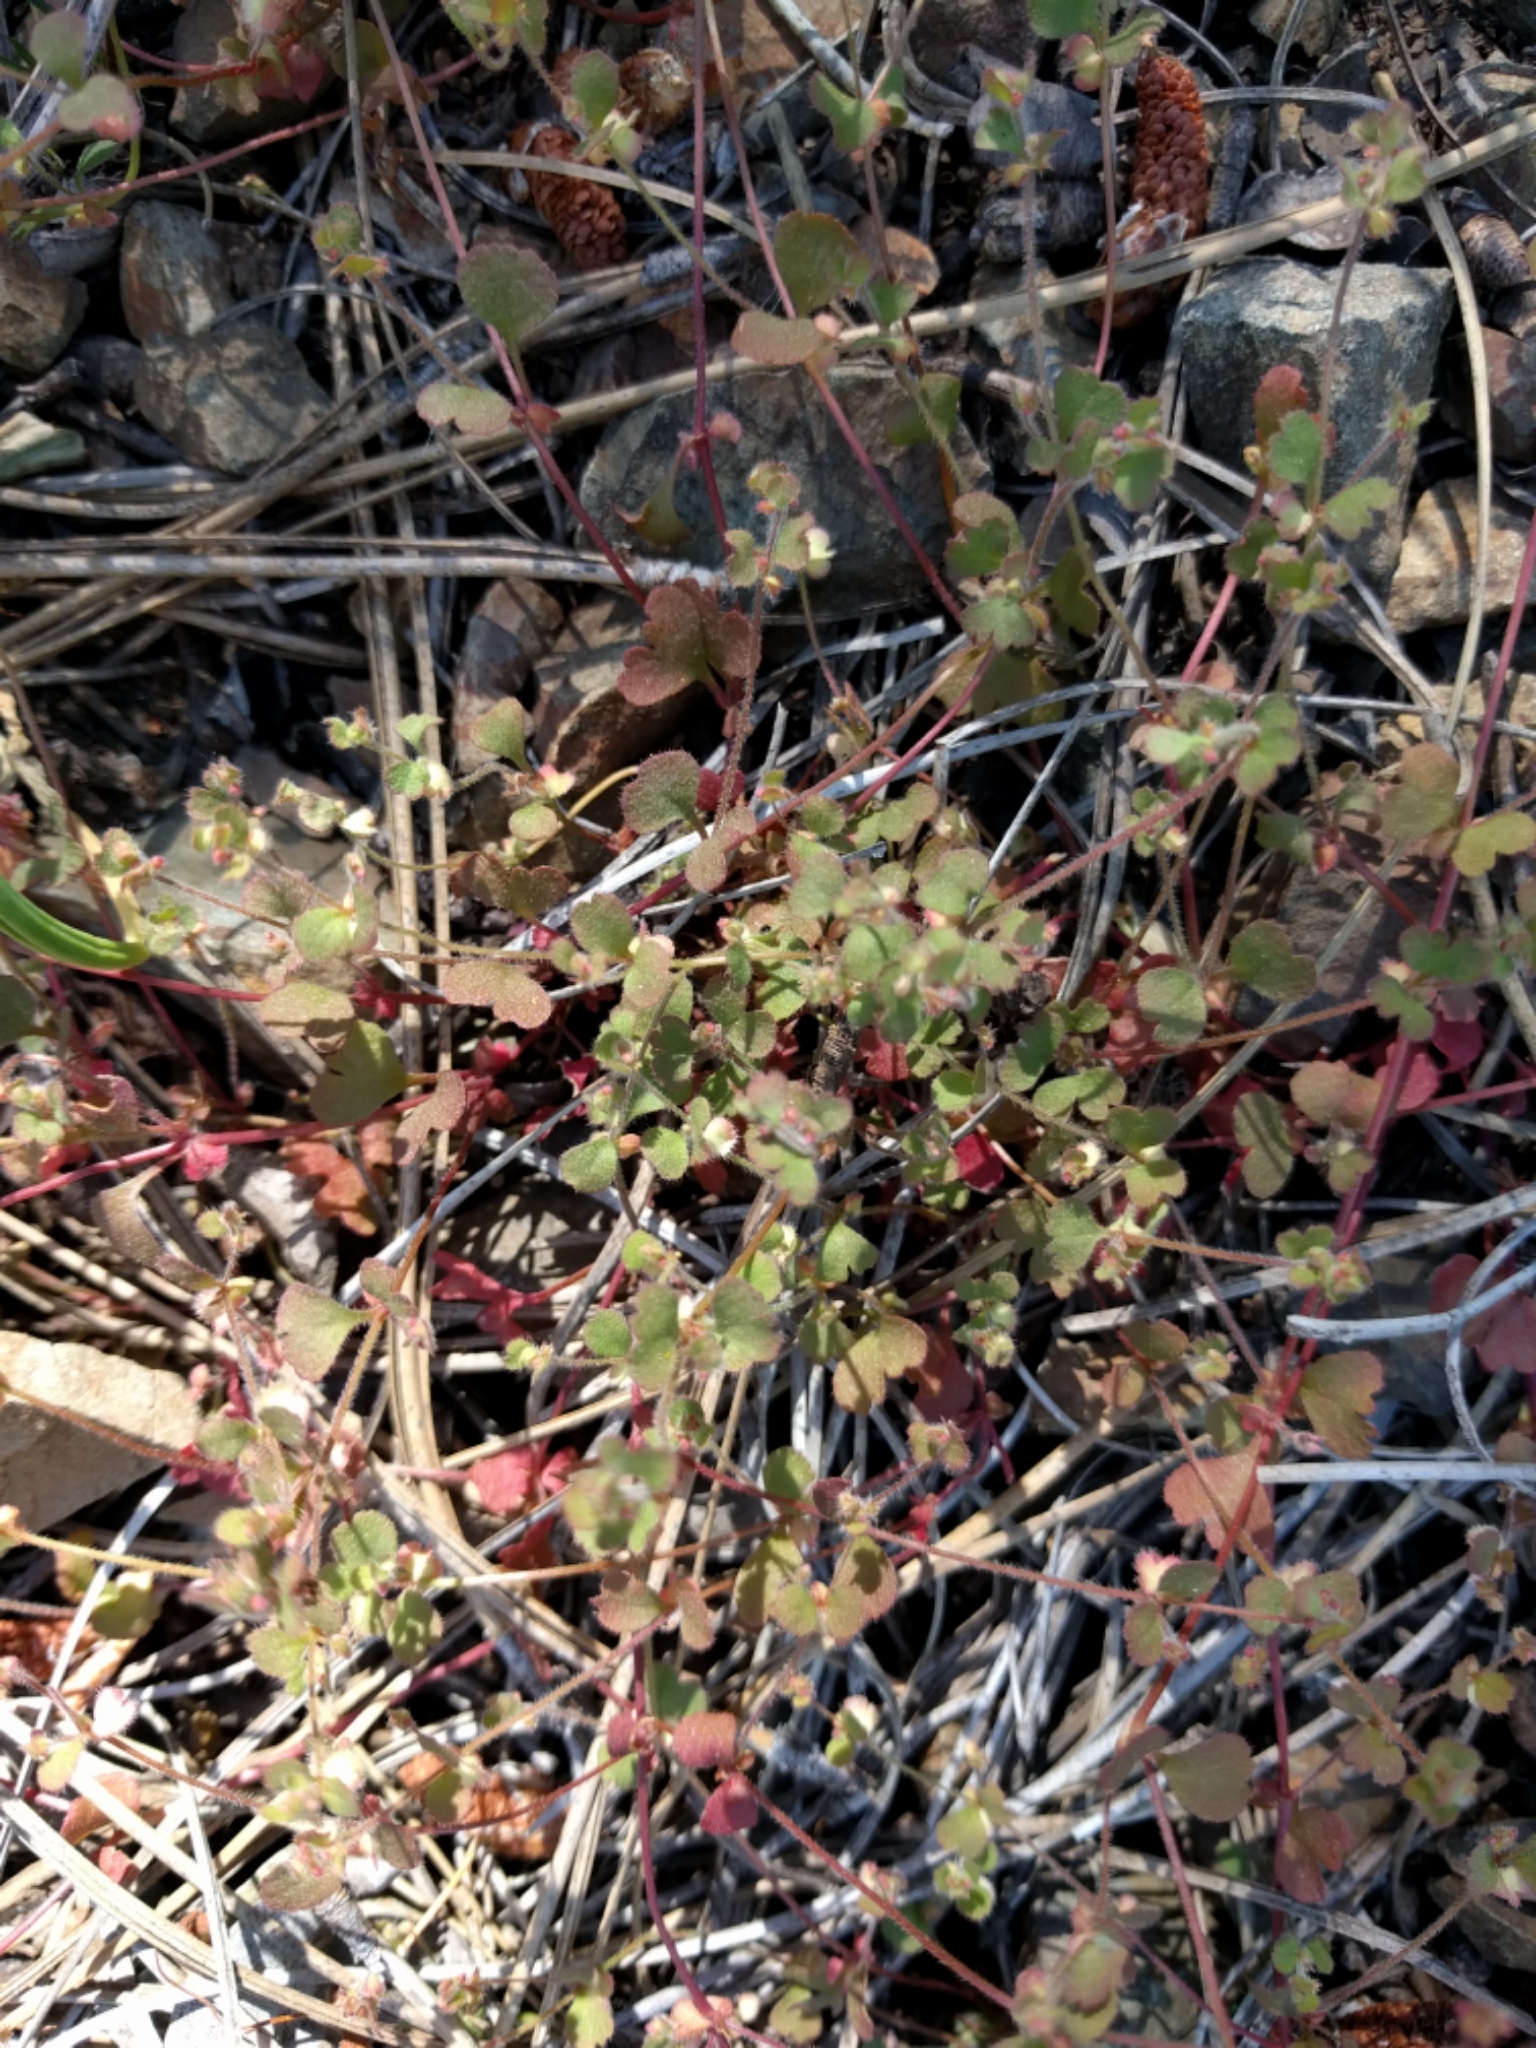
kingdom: Plantae
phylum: Tracheophyta
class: Magnoliopsida
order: Caryophyllales
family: Polygonaceae
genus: Pterostegia
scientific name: Pterostegia drymarioides
